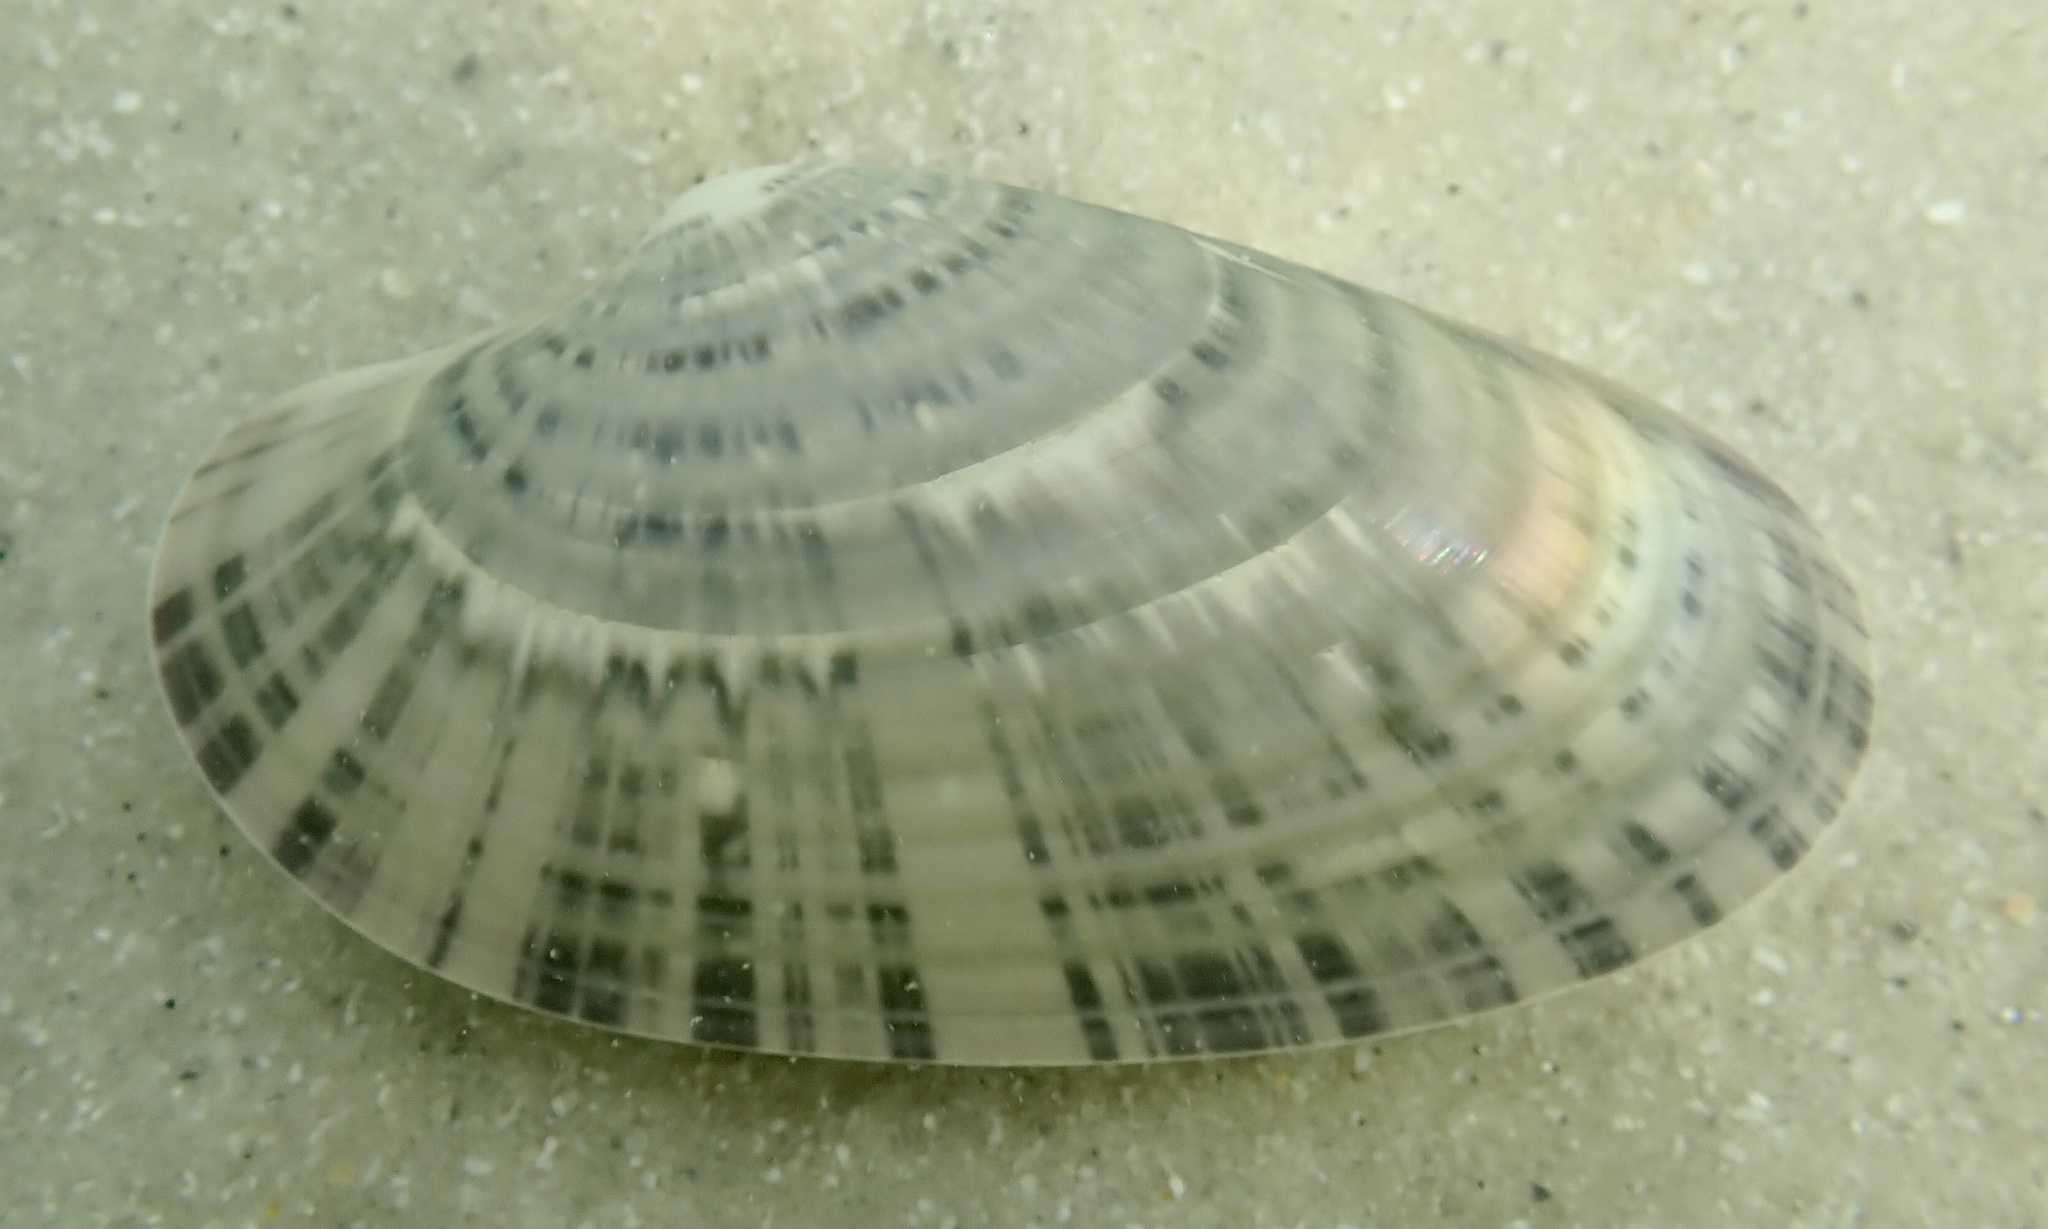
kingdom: Animalia
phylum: Mollusca
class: Bivalvia
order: Venerida
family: Veneridae
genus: Macrocallista
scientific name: Macrocallista nimbosa
